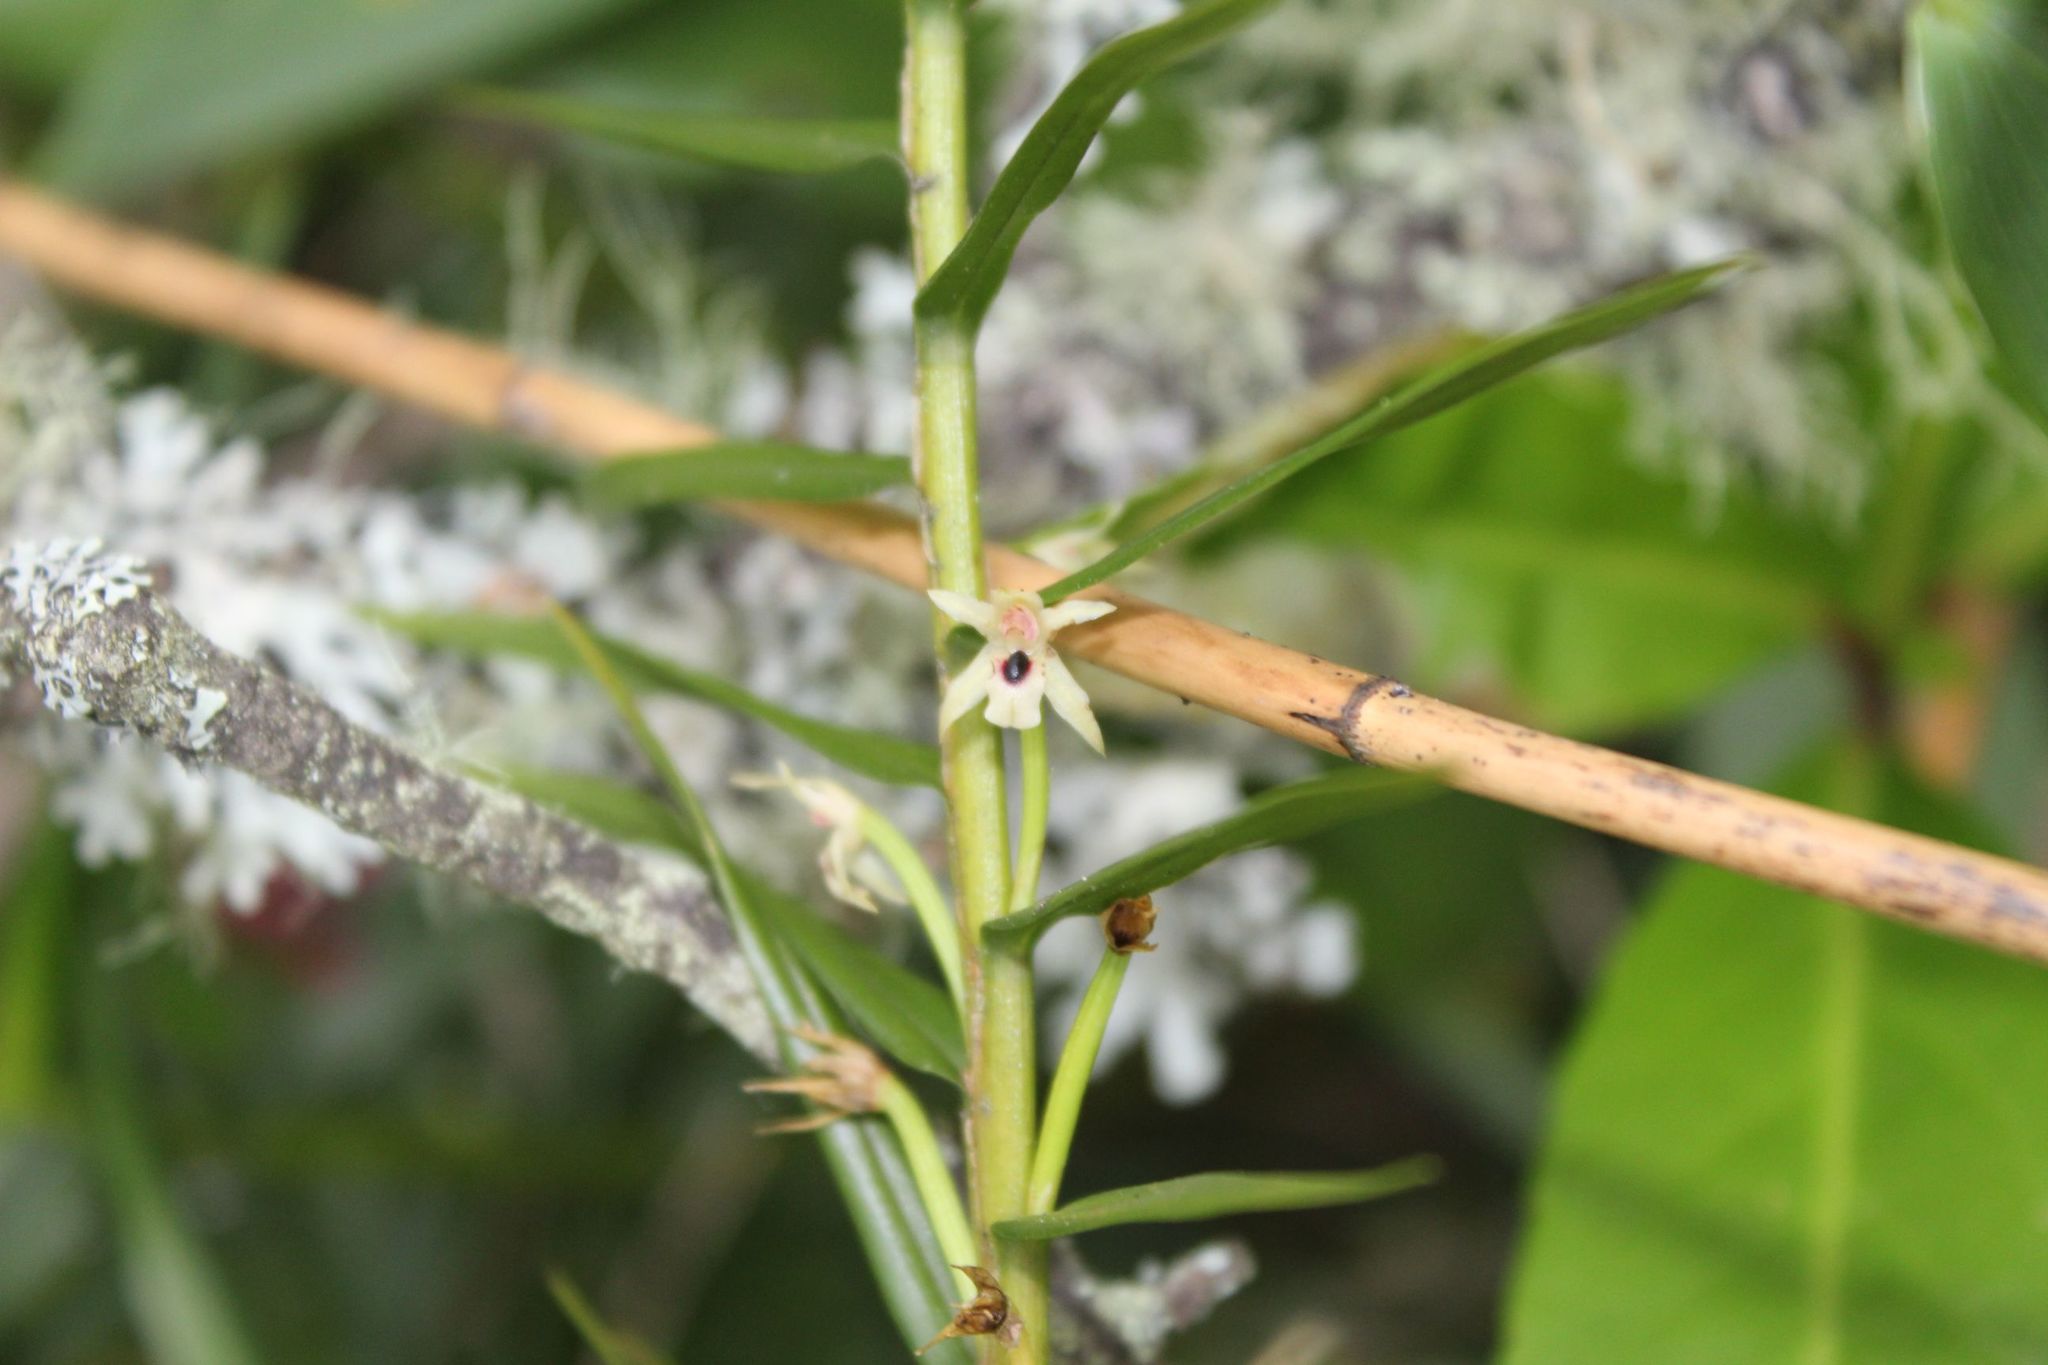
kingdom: Plantae
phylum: Tracheophyta
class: Liliopsida
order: Asparagales
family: Orchidaceae
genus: Maxillaria
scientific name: Maxillaria graminifolia
